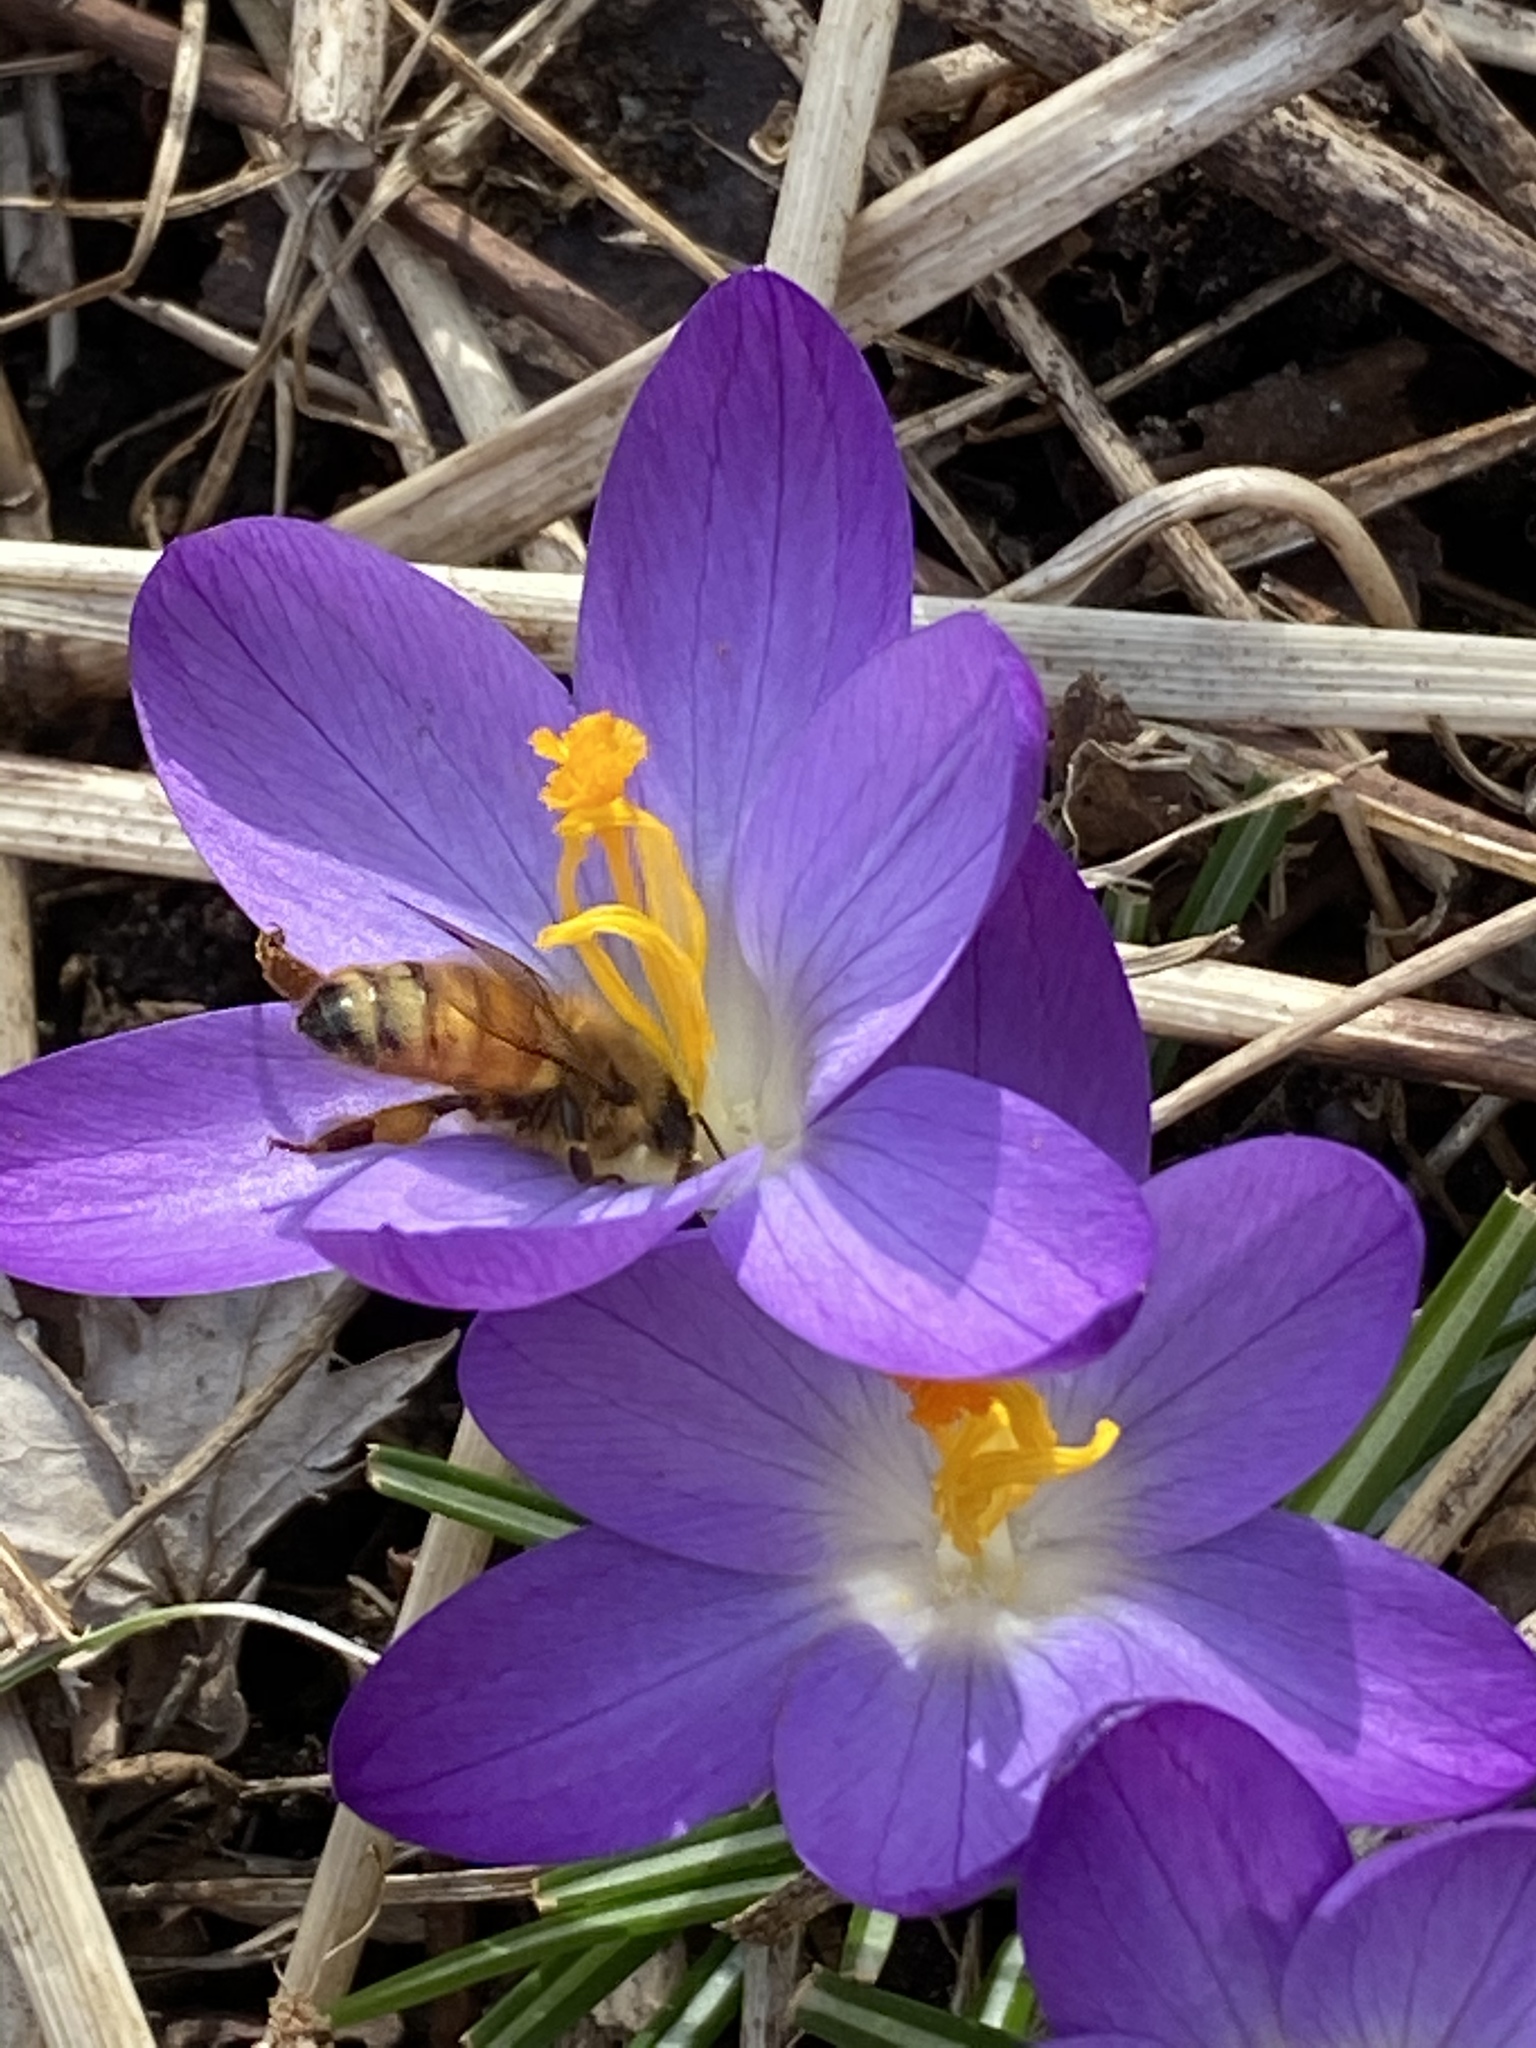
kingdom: Animalia
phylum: Arthropoda
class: Insecta
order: Hymenoptera
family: Apidae
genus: Apis
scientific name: Apis mellifera
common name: Honey bee
